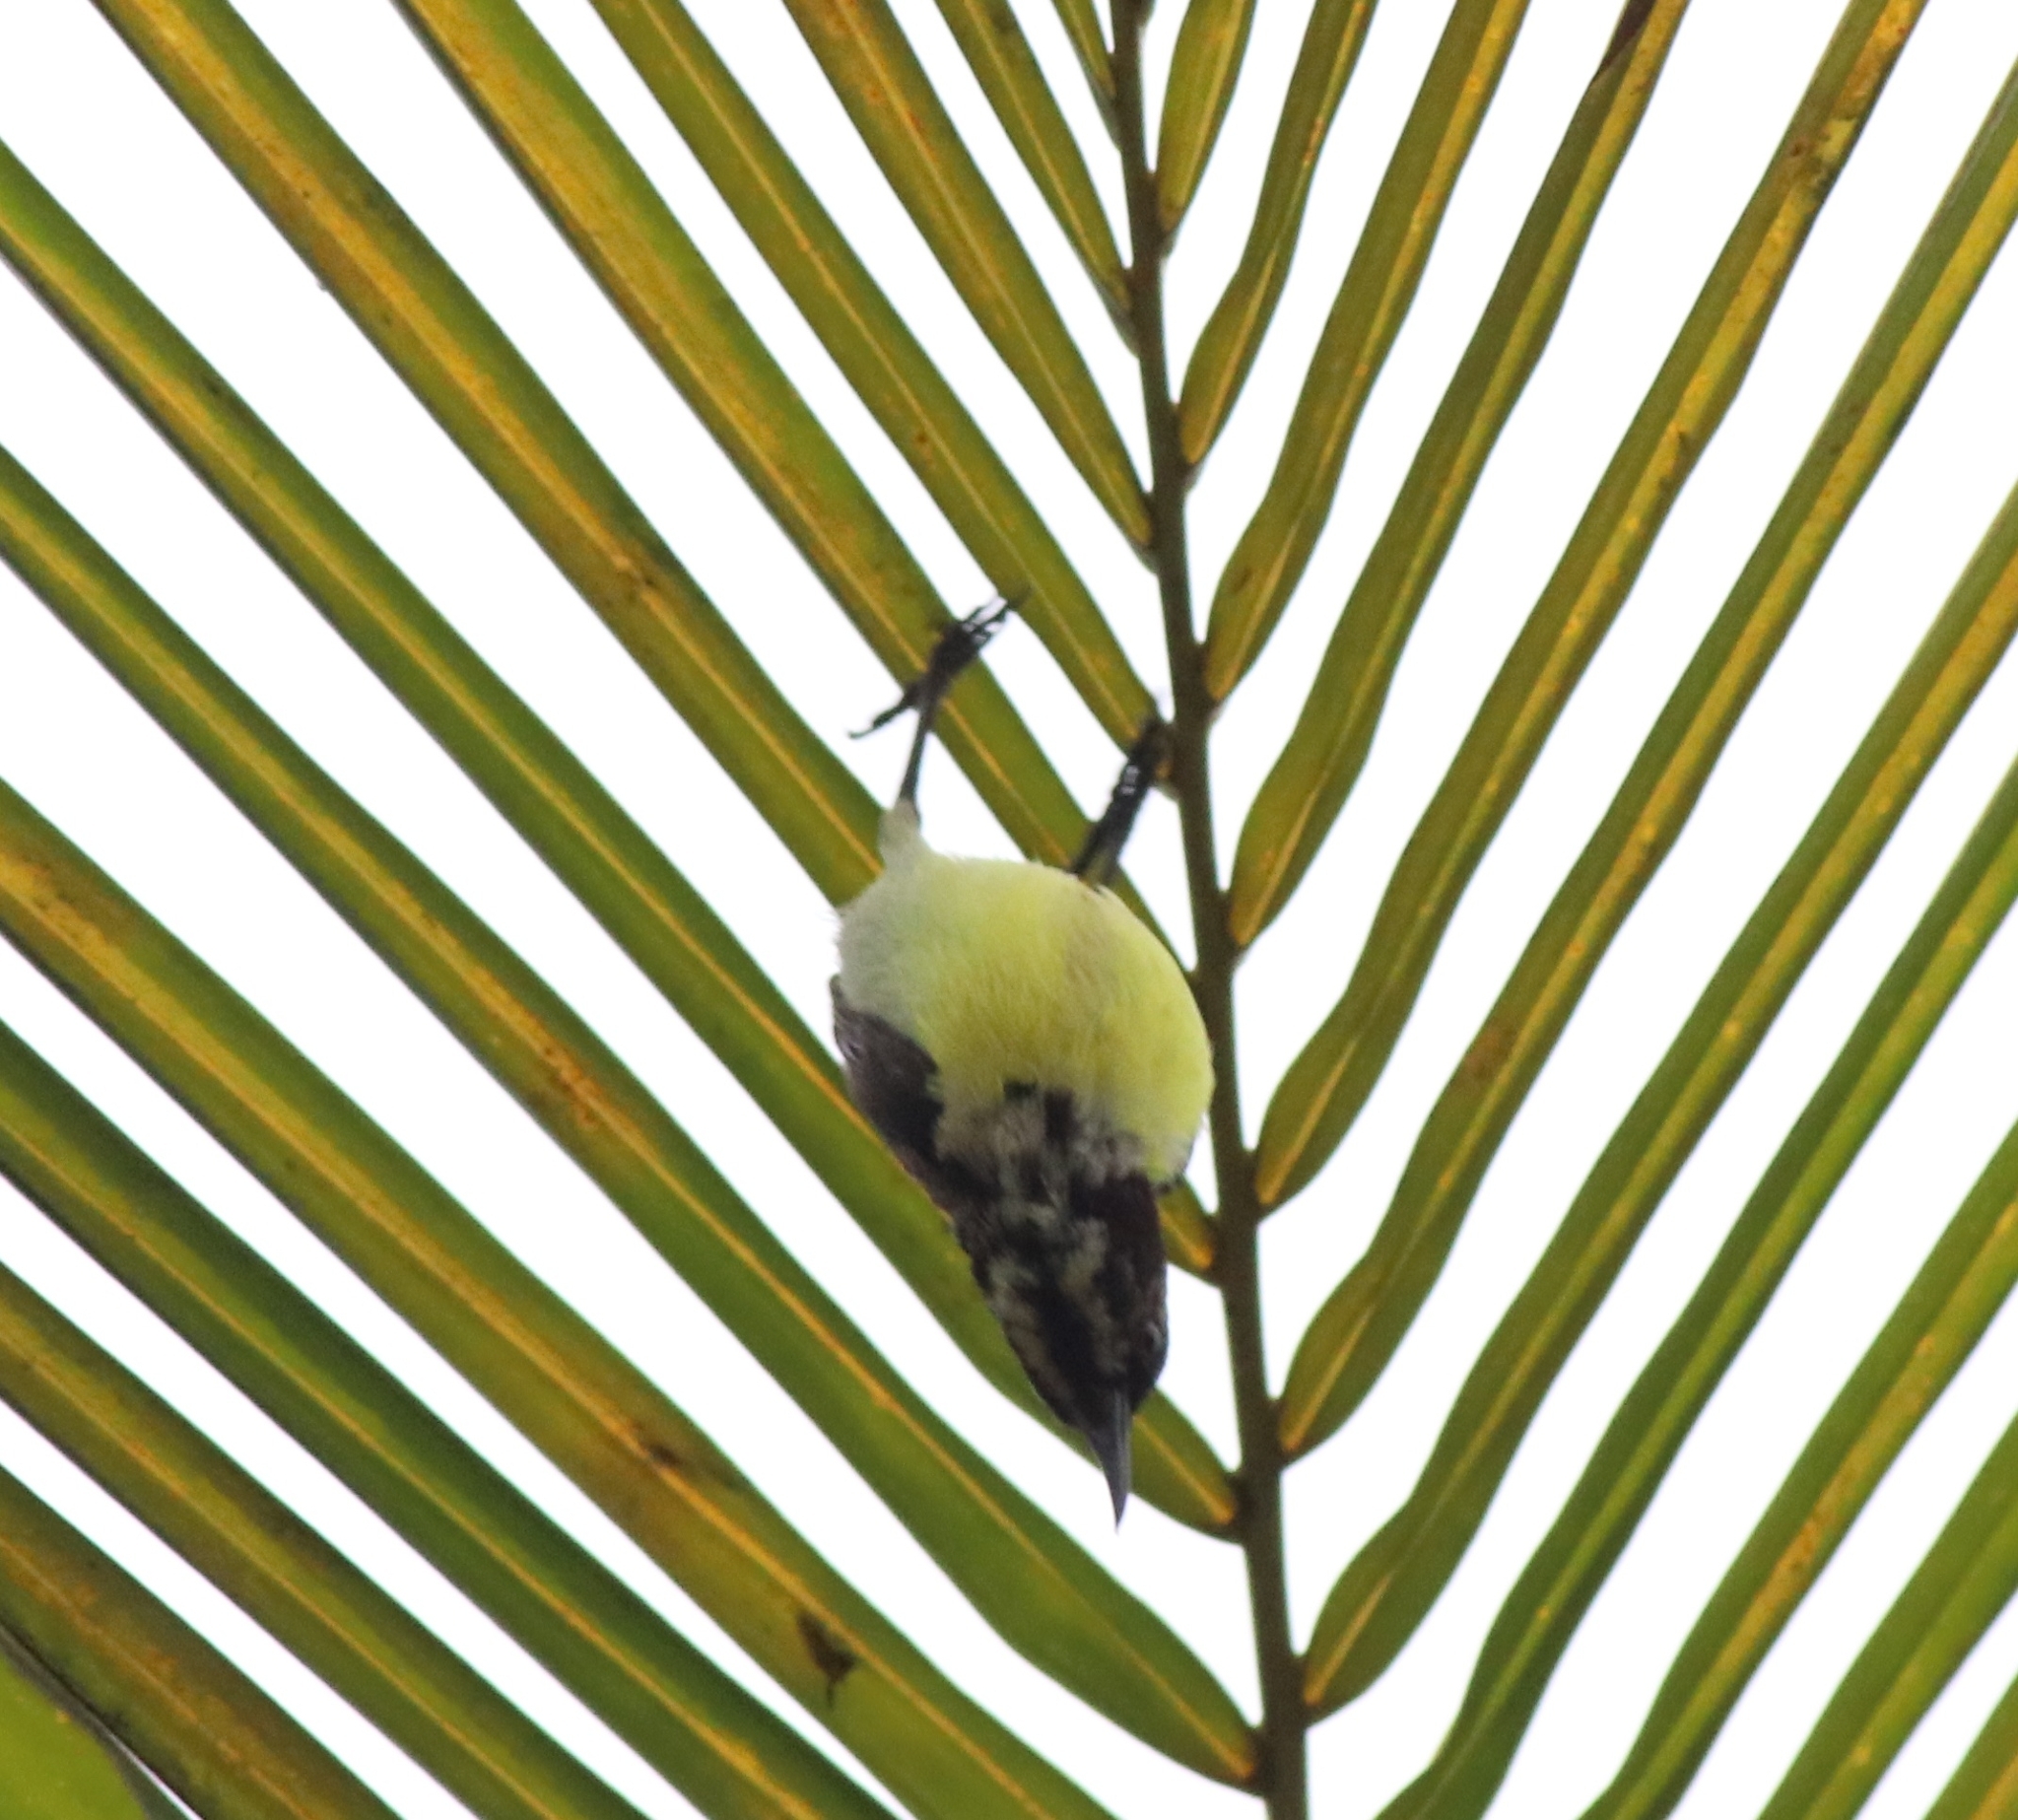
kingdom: Animalia
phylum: Chordata
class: Aves
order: Passeriformes
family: Nectariniidae
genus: Leptocoma
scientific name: Leptocoma zeylonica
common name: Purple-rumped sunbird
